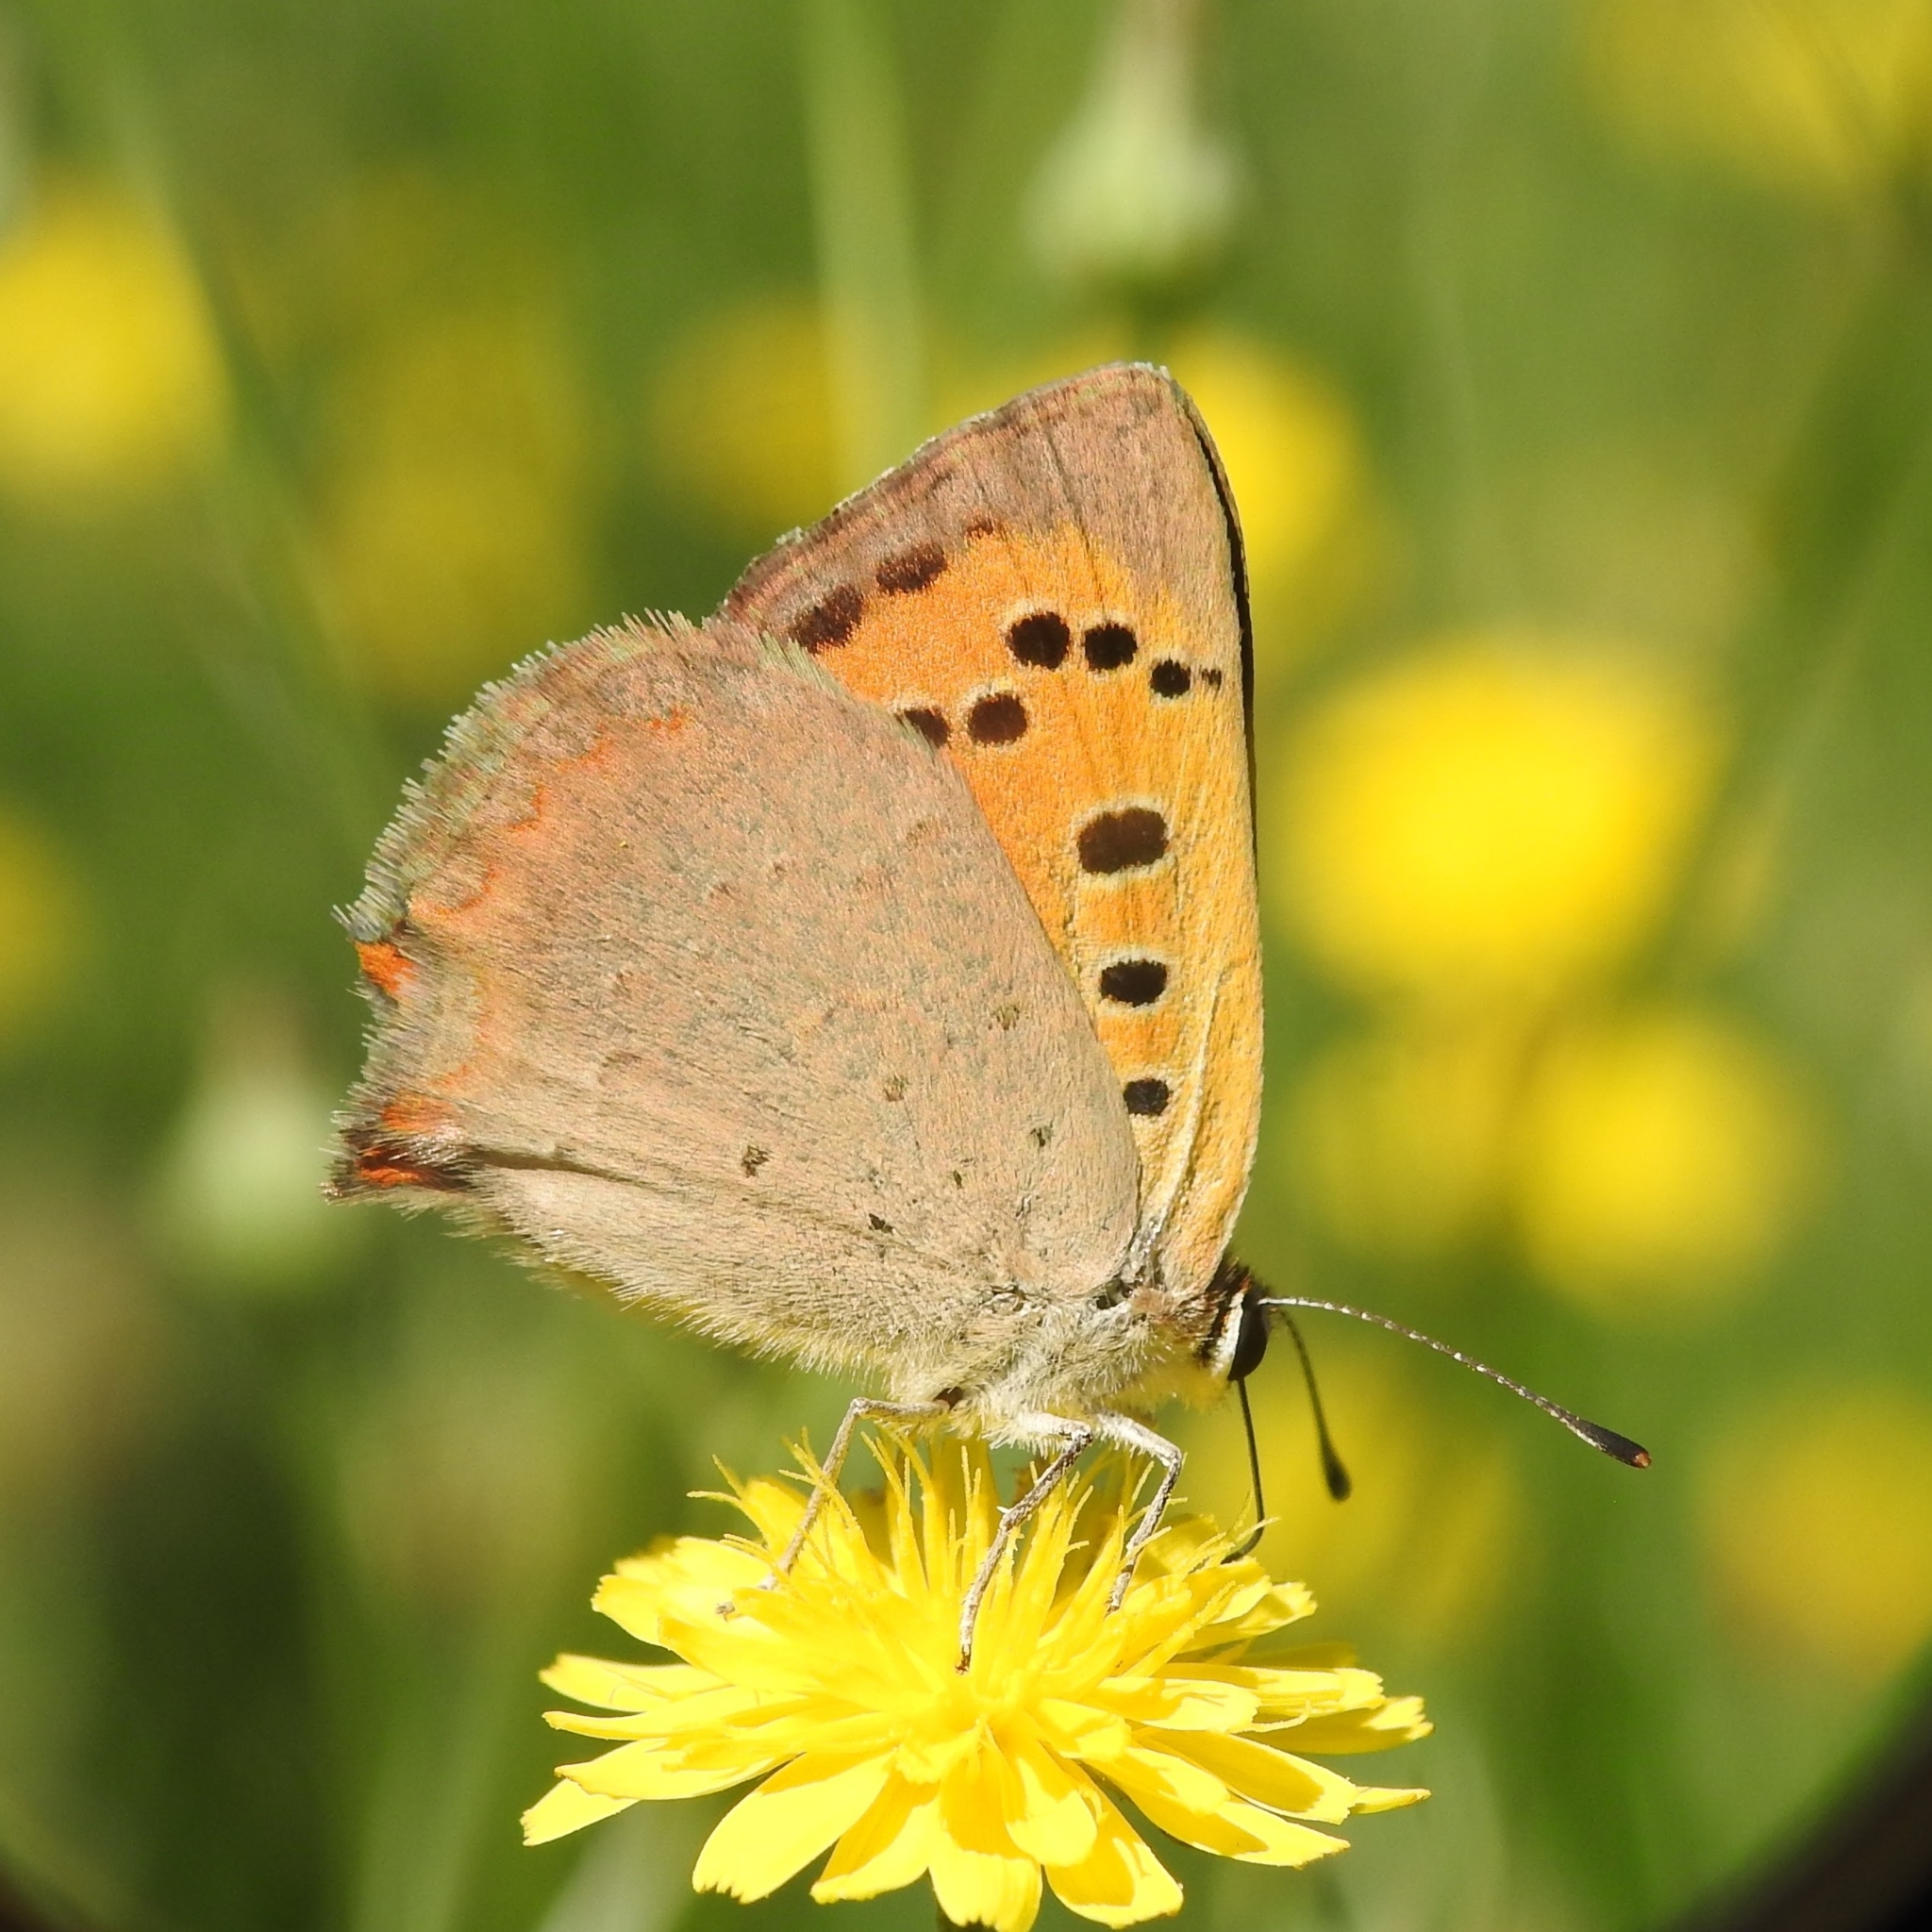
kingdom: Animalia
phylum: Arthropoda
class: Insecta
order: Lepidoptera
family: Lycaenidae
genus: Lycaena
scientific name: Lycaena phlaeas
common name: Small copper
